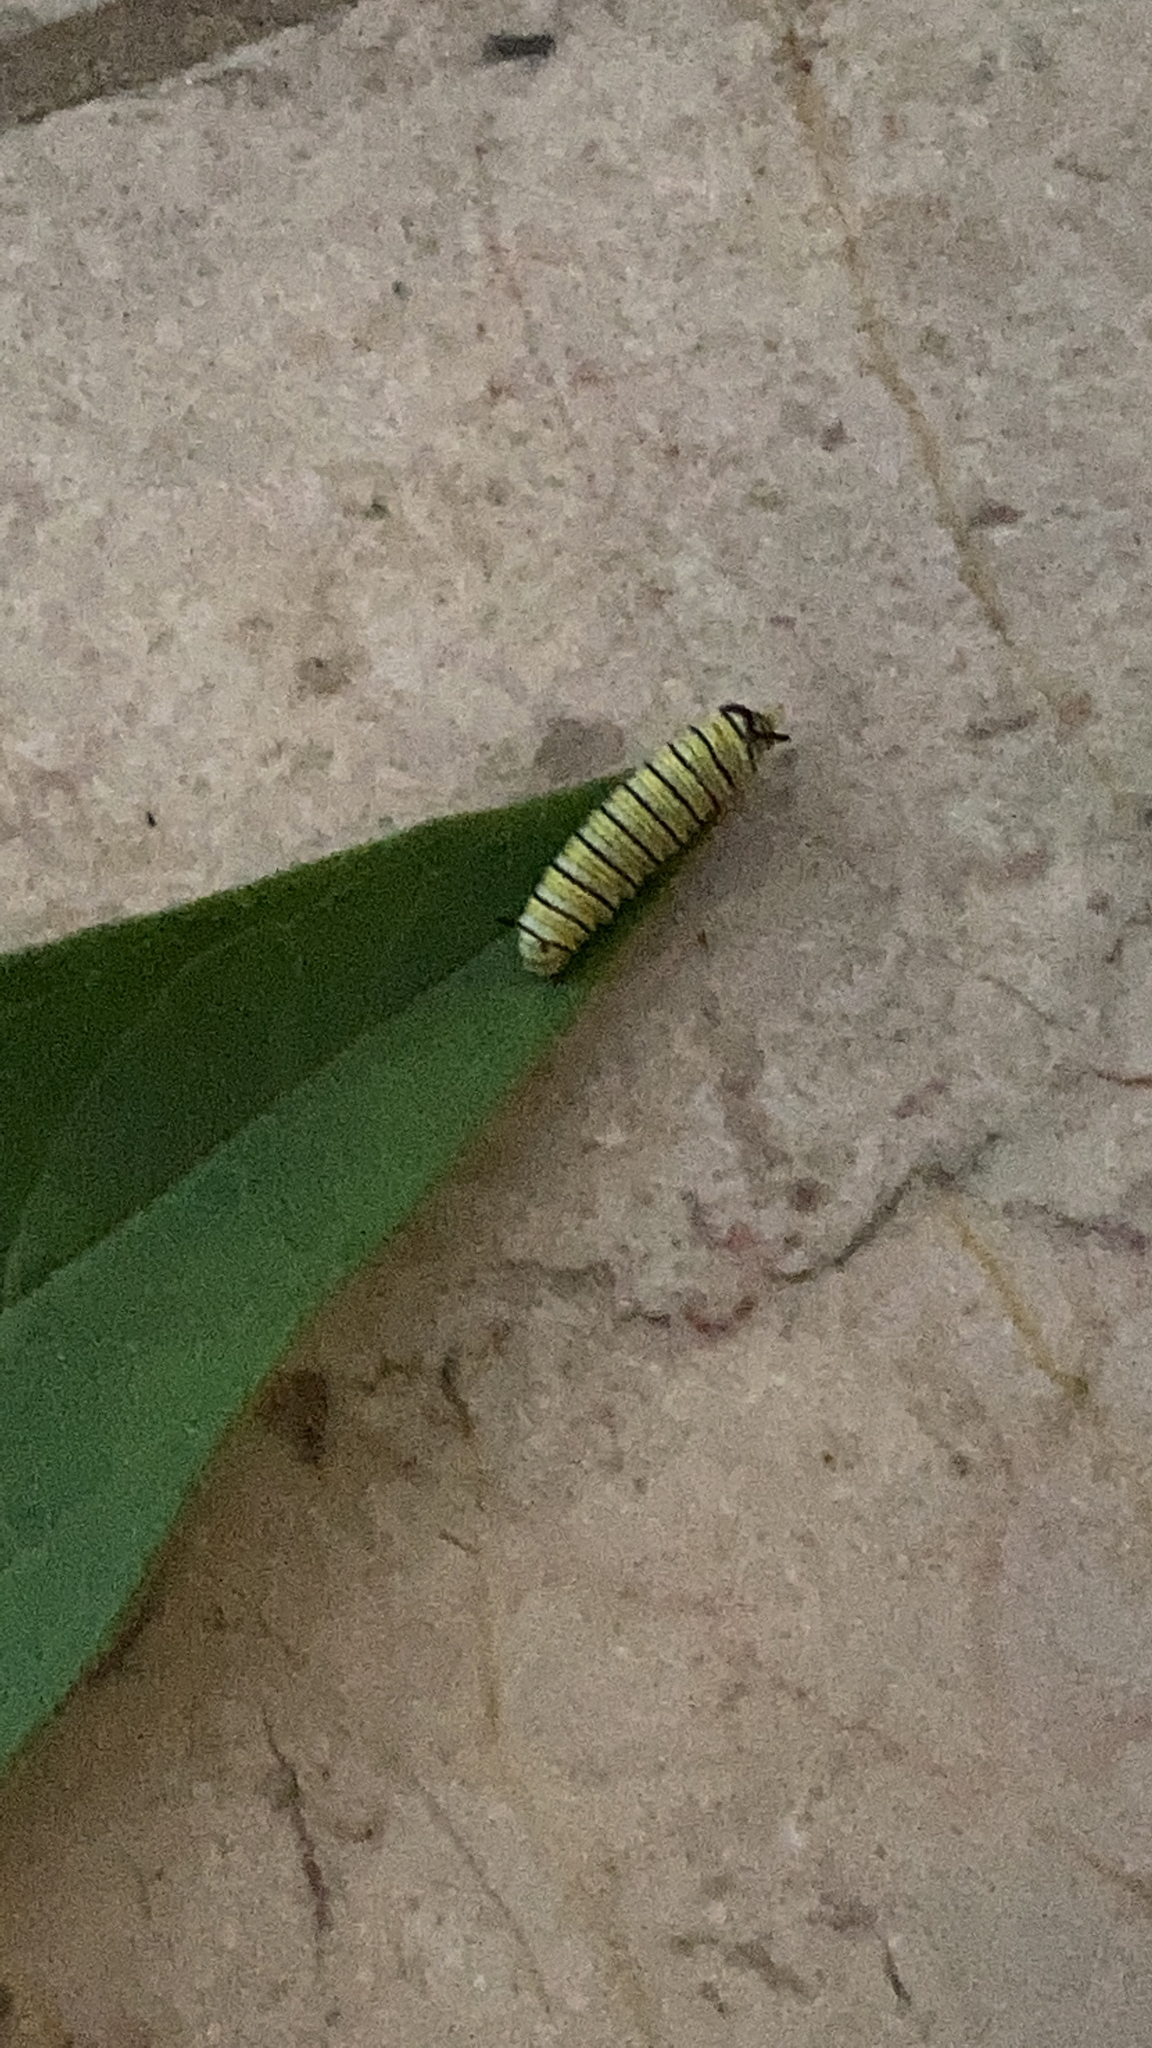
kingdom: Animalia
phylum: Arthropoda
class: Insecta
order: Lepidoptera
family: Nymphalidae
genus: Danaus
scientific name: Danaus plexippus
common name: Monarch
